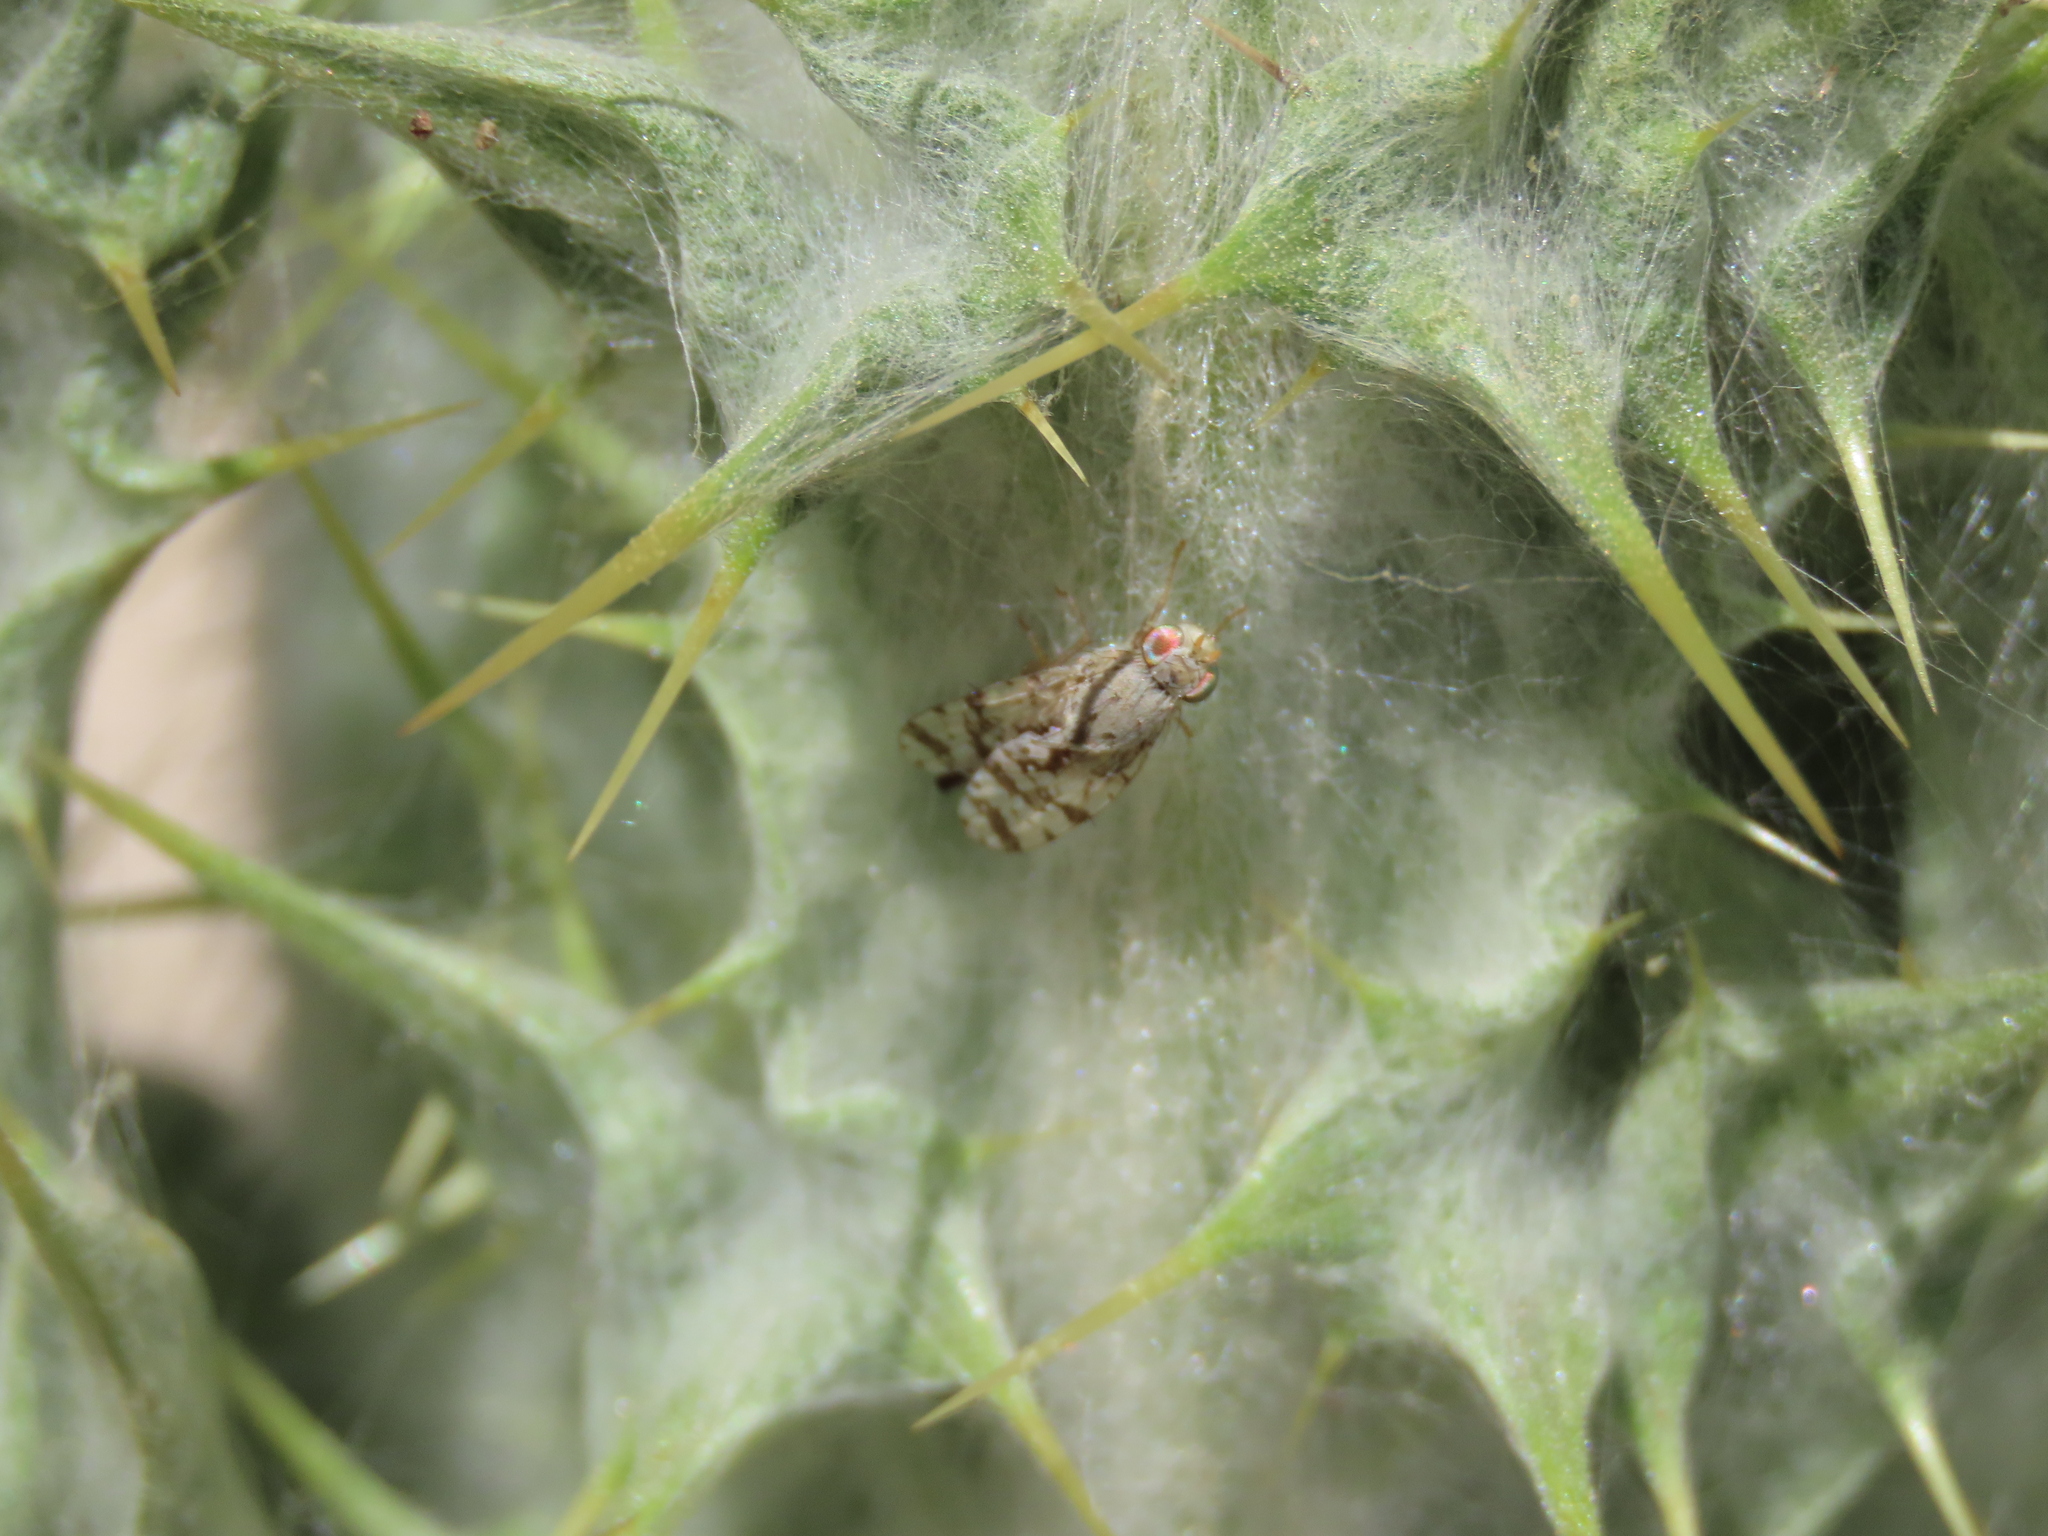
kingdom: Animalia
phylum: Arthropoda
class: Insecta
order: Diptera
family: Tephritidae
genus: Tephritis
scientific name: Tephritis postica
